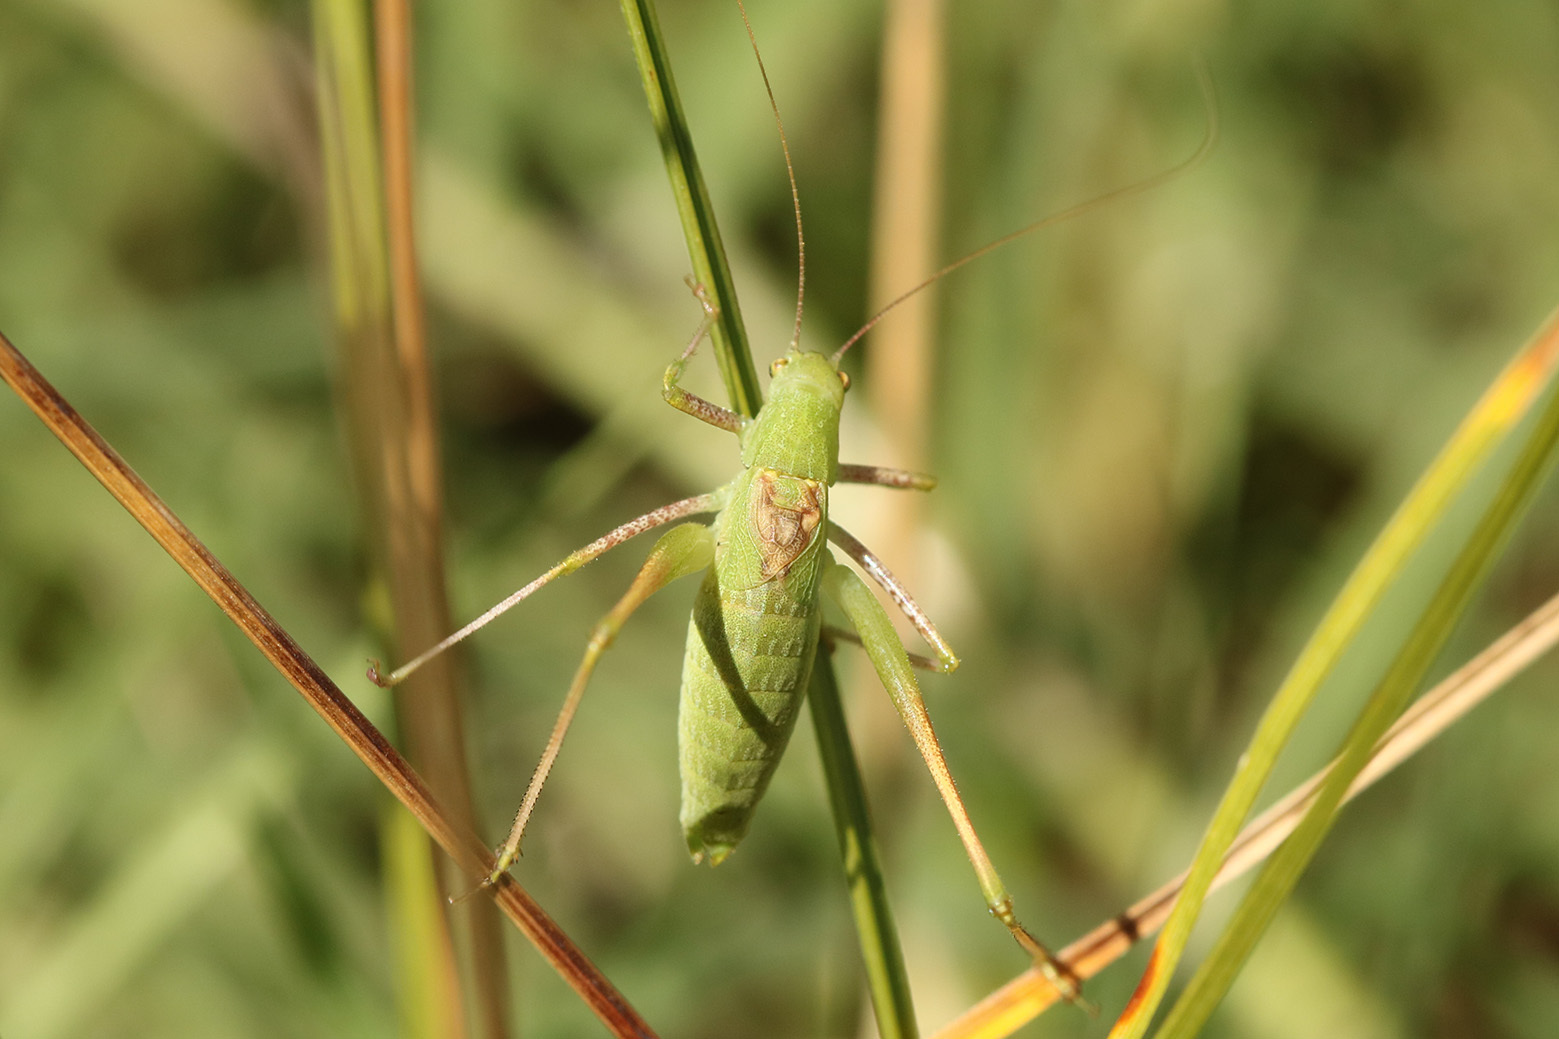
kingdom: Animalia
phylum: Arthropoda
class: Insecta
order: Orthoptera
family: Tettigoniidae
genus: Anisophya
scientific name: Anisophya
